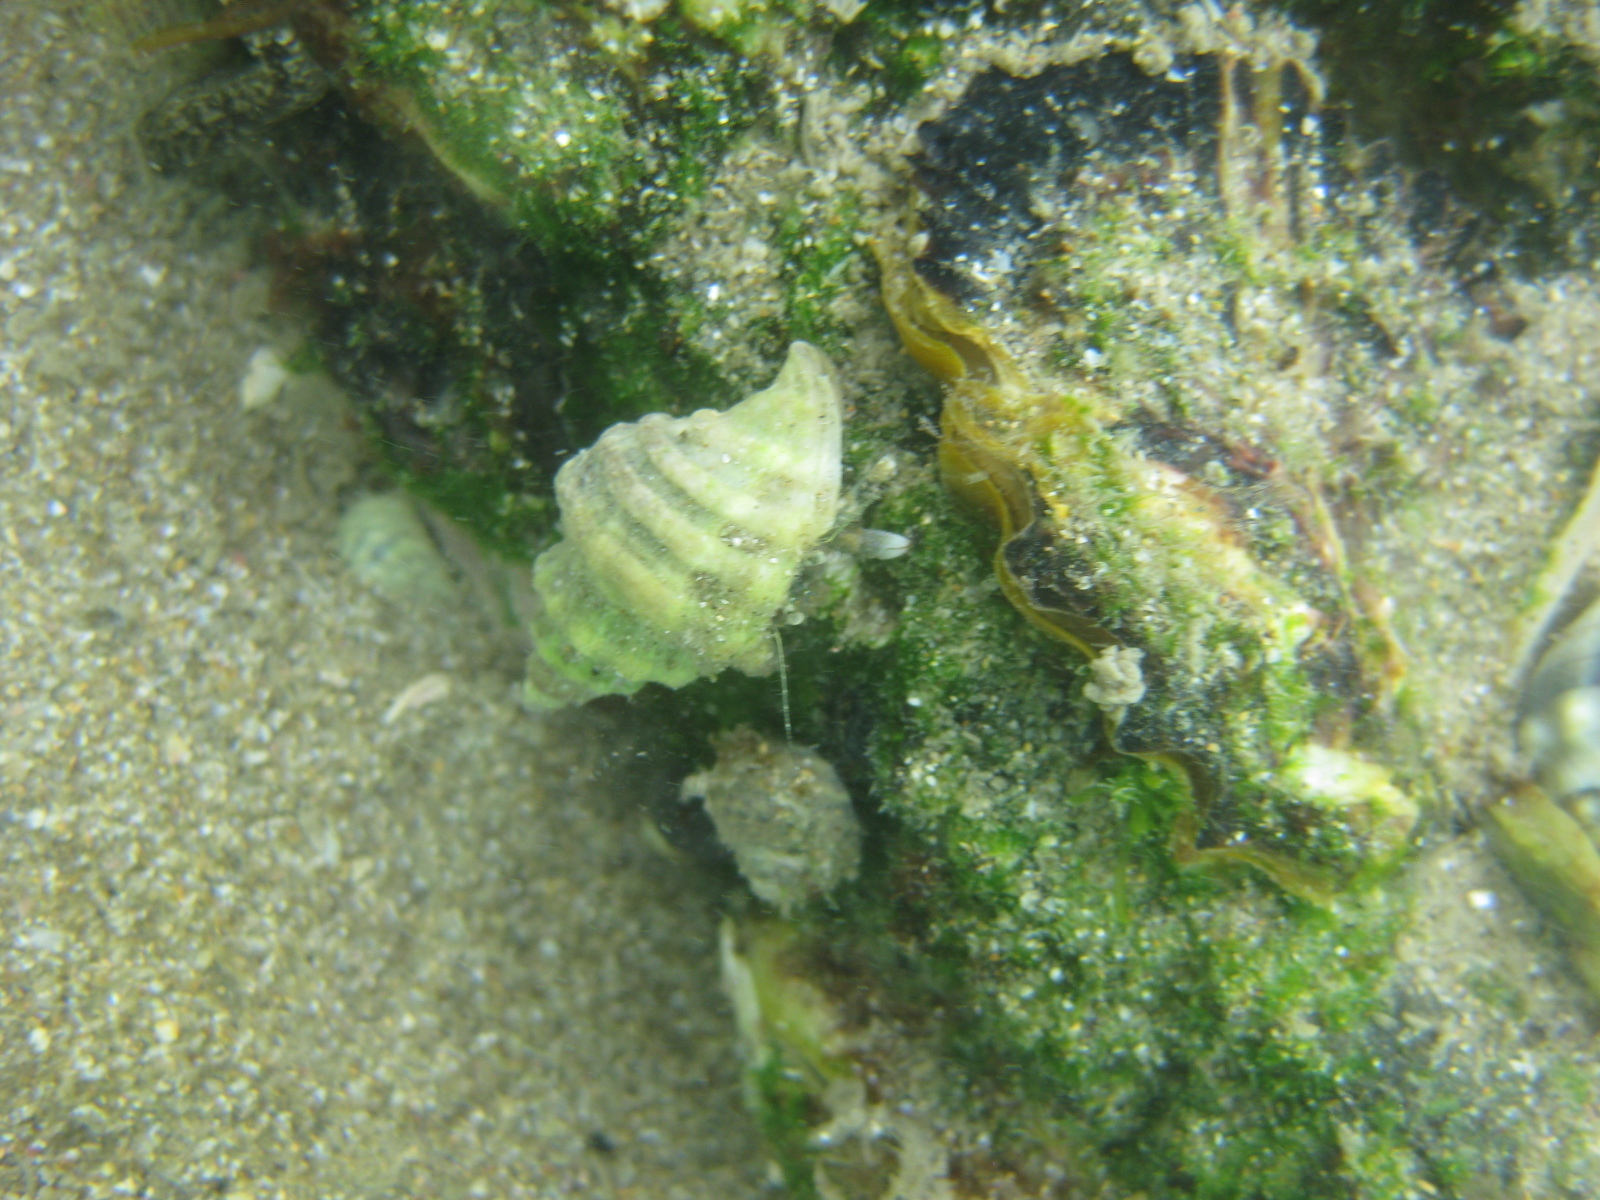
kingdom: Animalia
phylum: Mollusca
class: Gastropoda
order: Neogastropoda
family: Muricidae
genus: Paratrophon
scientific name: Paratrophon quoyi
